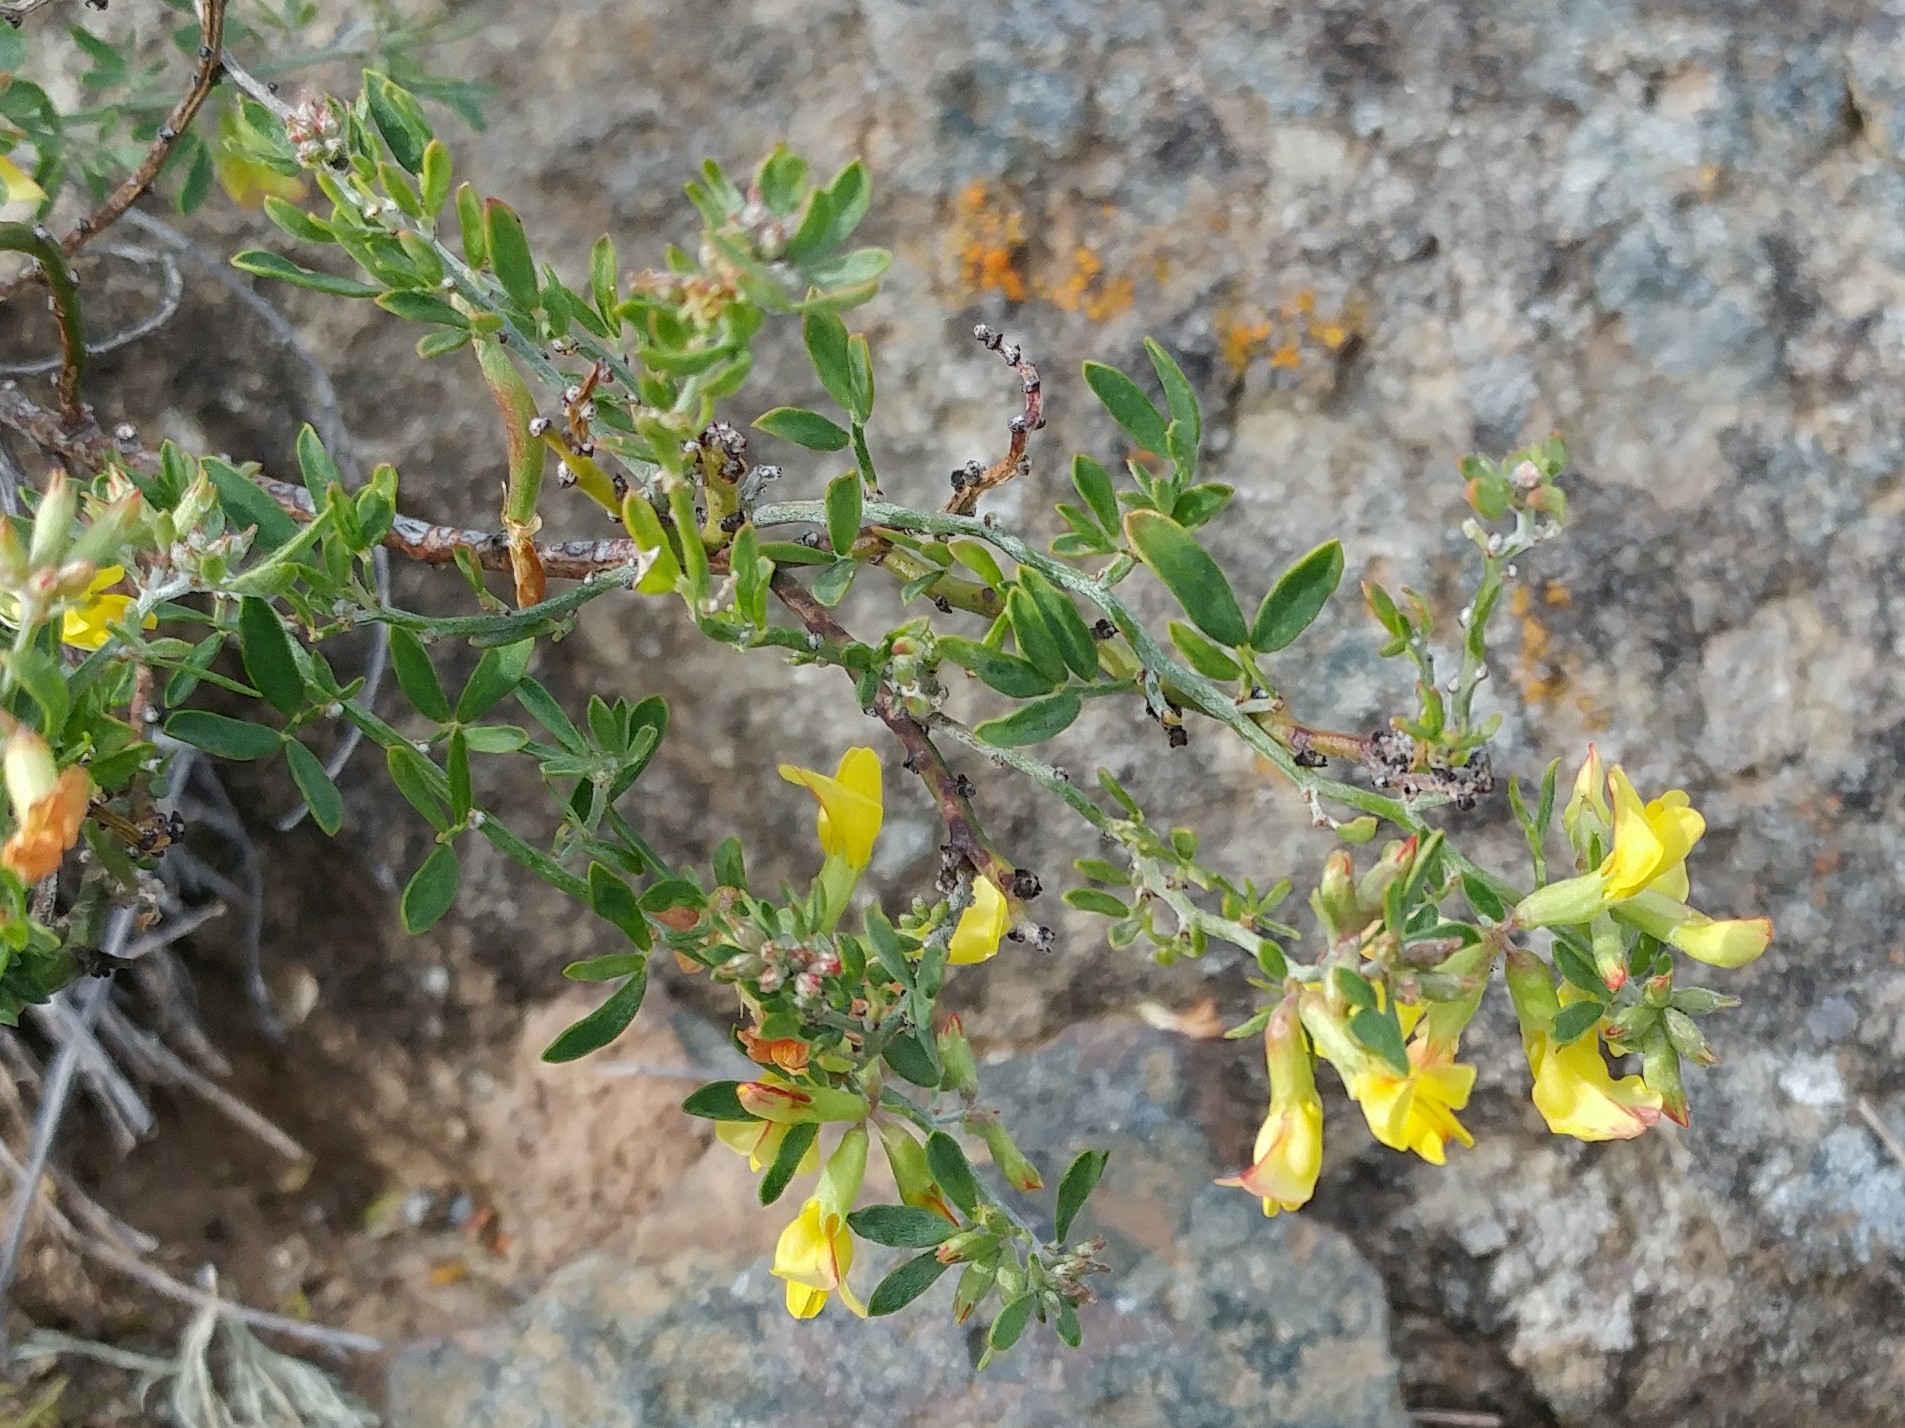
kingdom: Plantae
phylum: Tracheophyta
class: Magnoliopsida
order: Fabales
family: Fabaceae
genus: Acmispon
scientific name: Acmispon dendroideus
